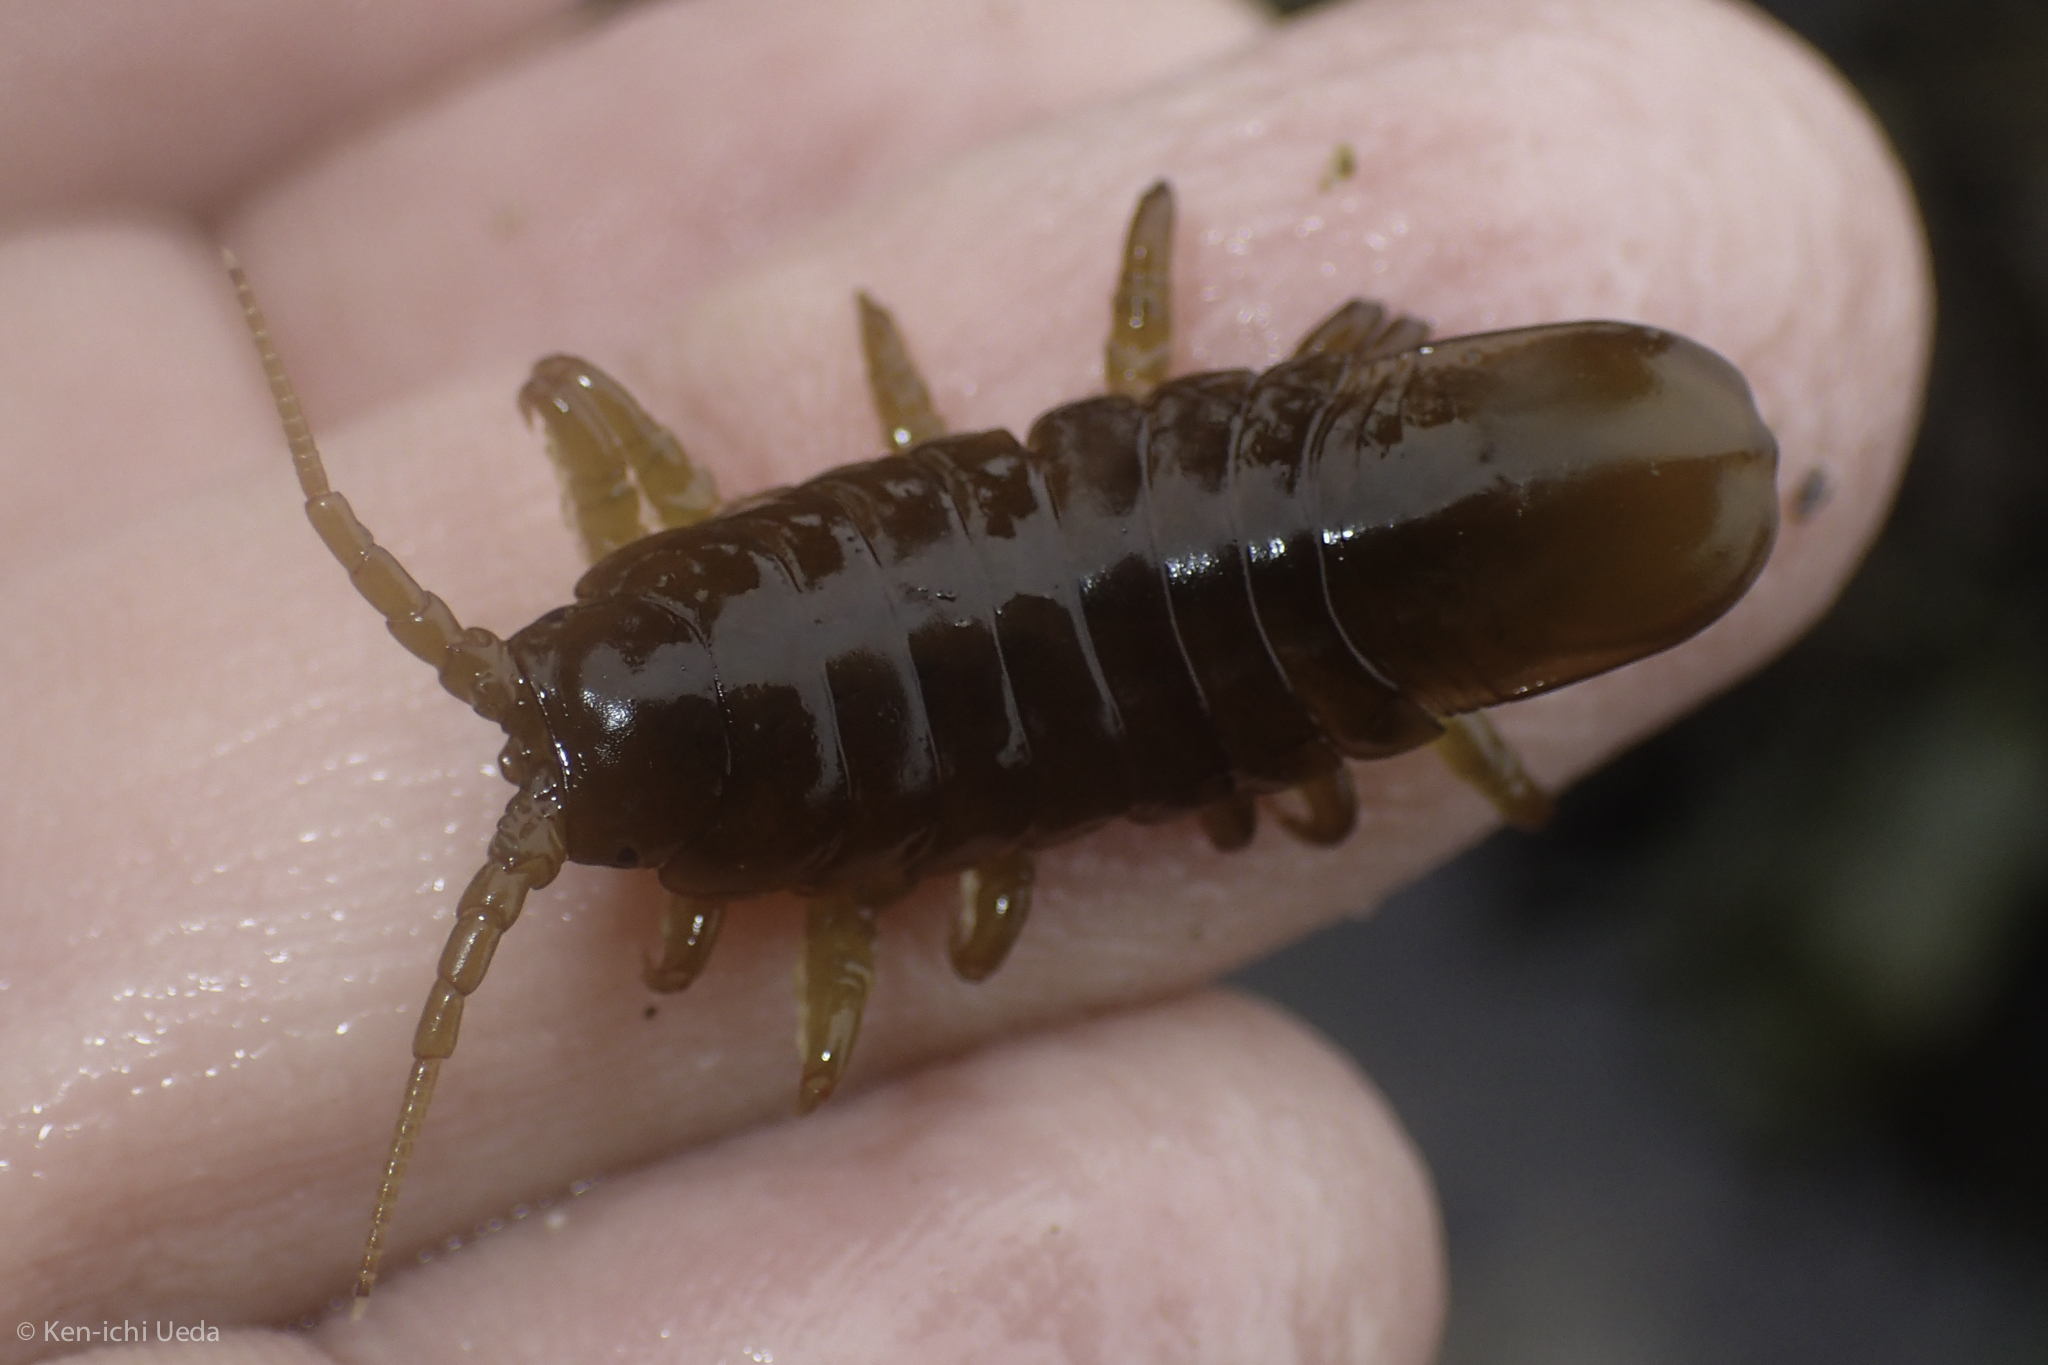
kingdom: Animalia
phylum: Arthropoda
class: Malacostraca
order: Isopoda
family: Idoteidae
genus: Pentidotea
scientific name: Pentidotea wosnesenskii
